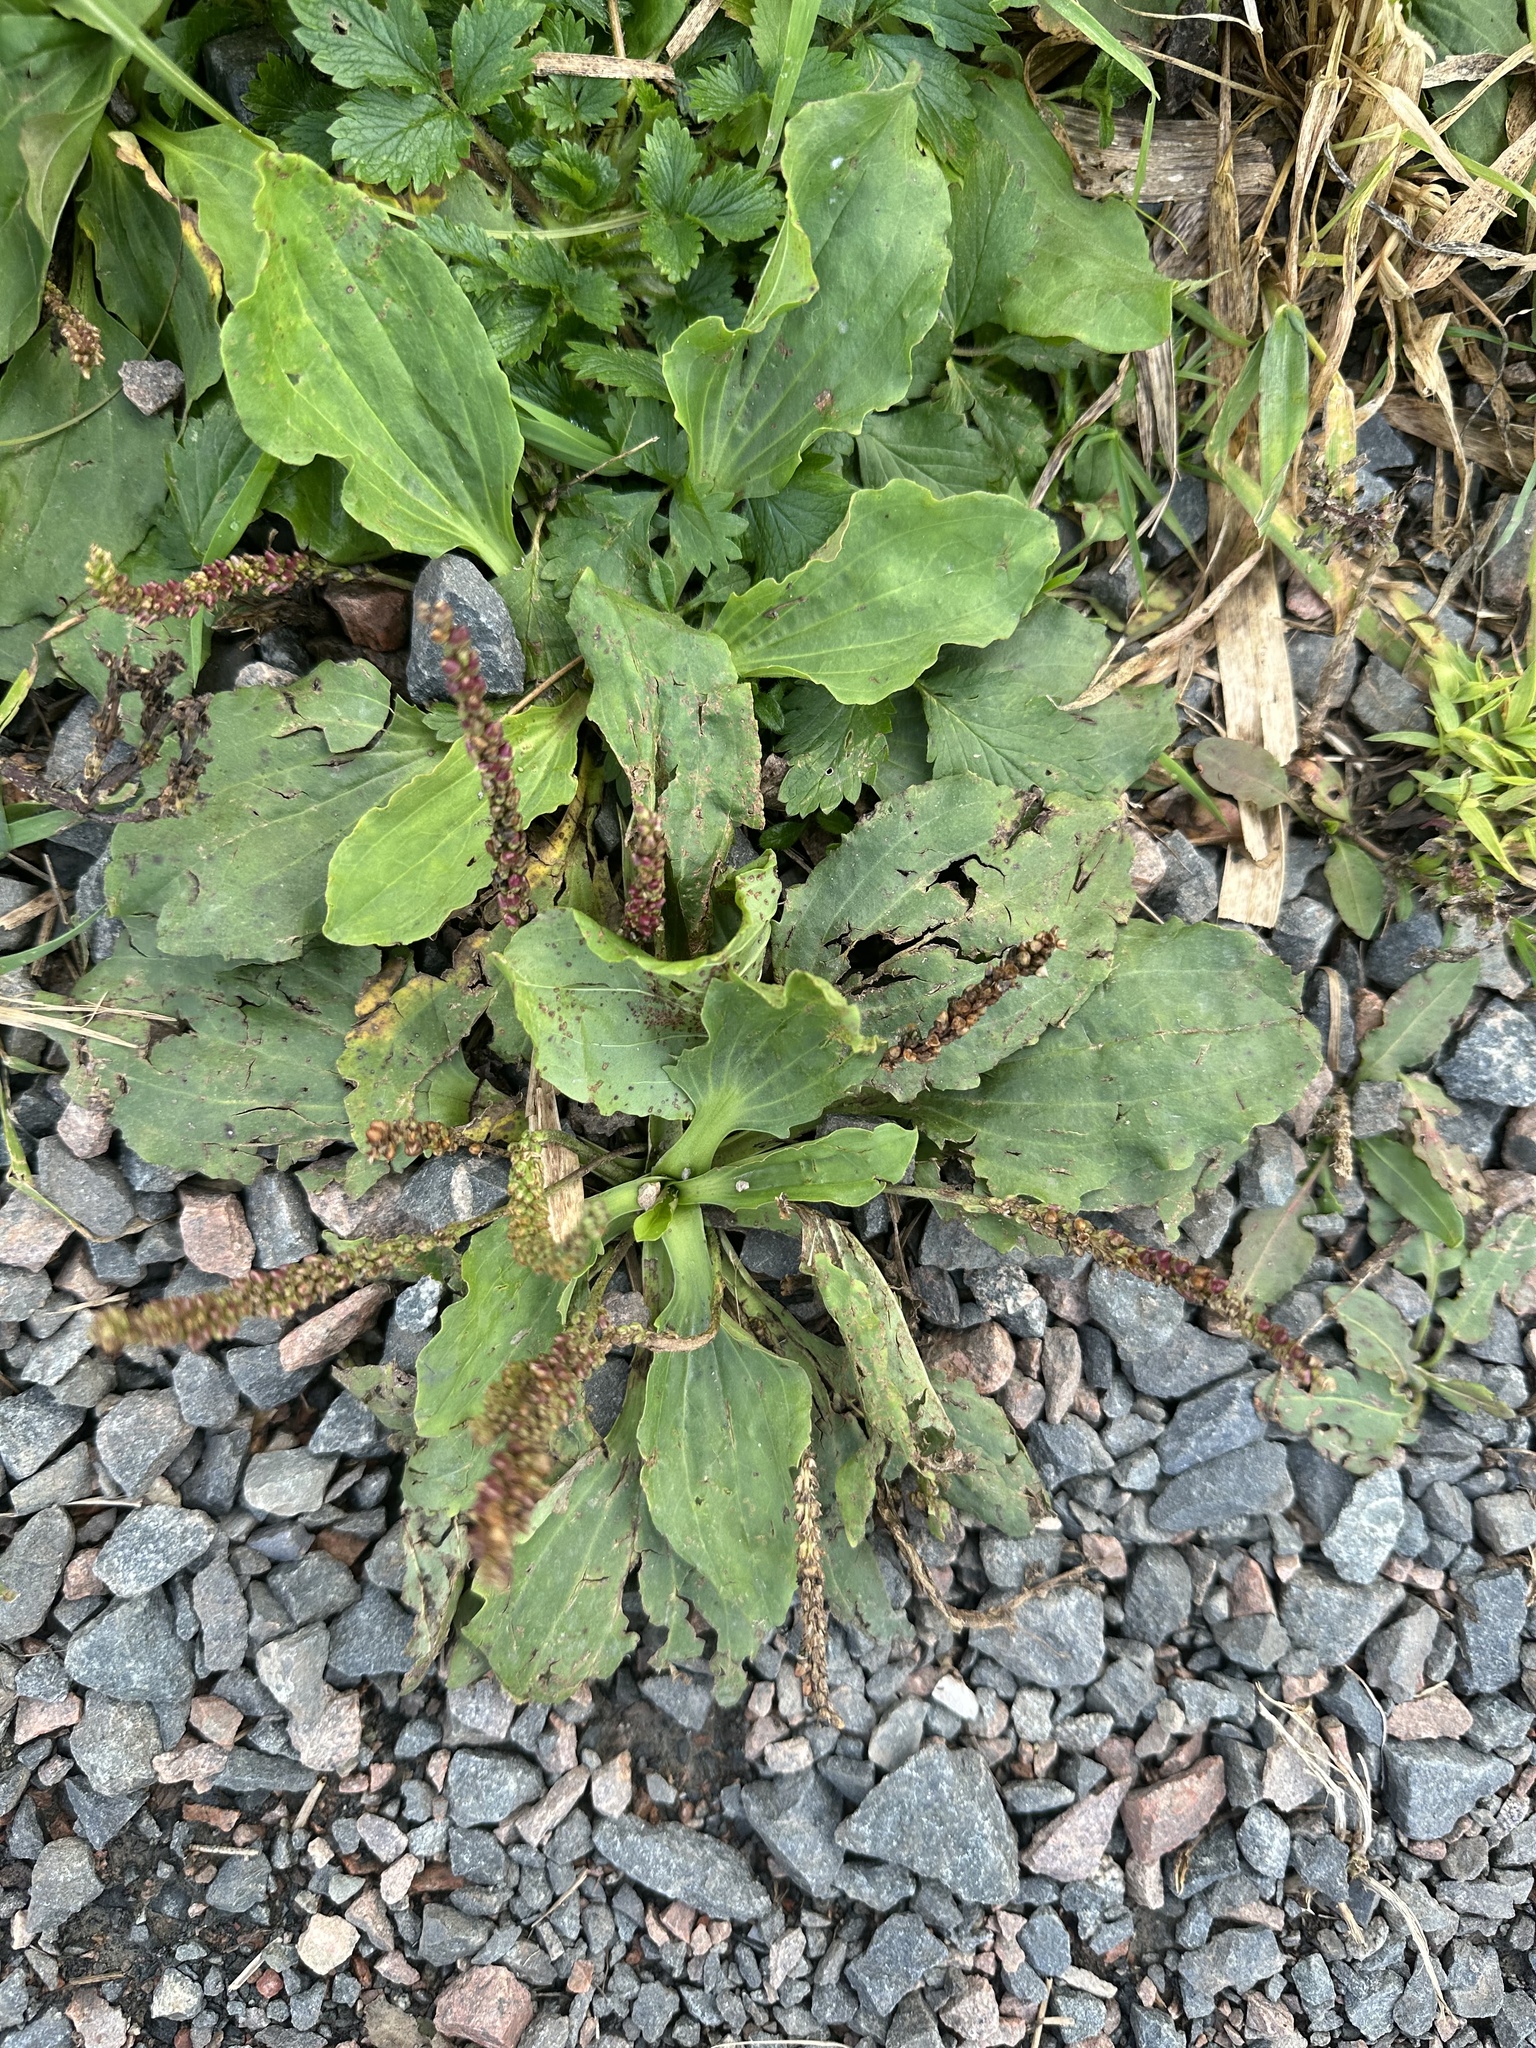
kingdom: Plantae
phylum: Tracheophyta
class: Magnoliopsida
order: Lamiales
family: Plantaginaceae
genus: Plantago
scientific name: Plantago major
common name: Common plantain
